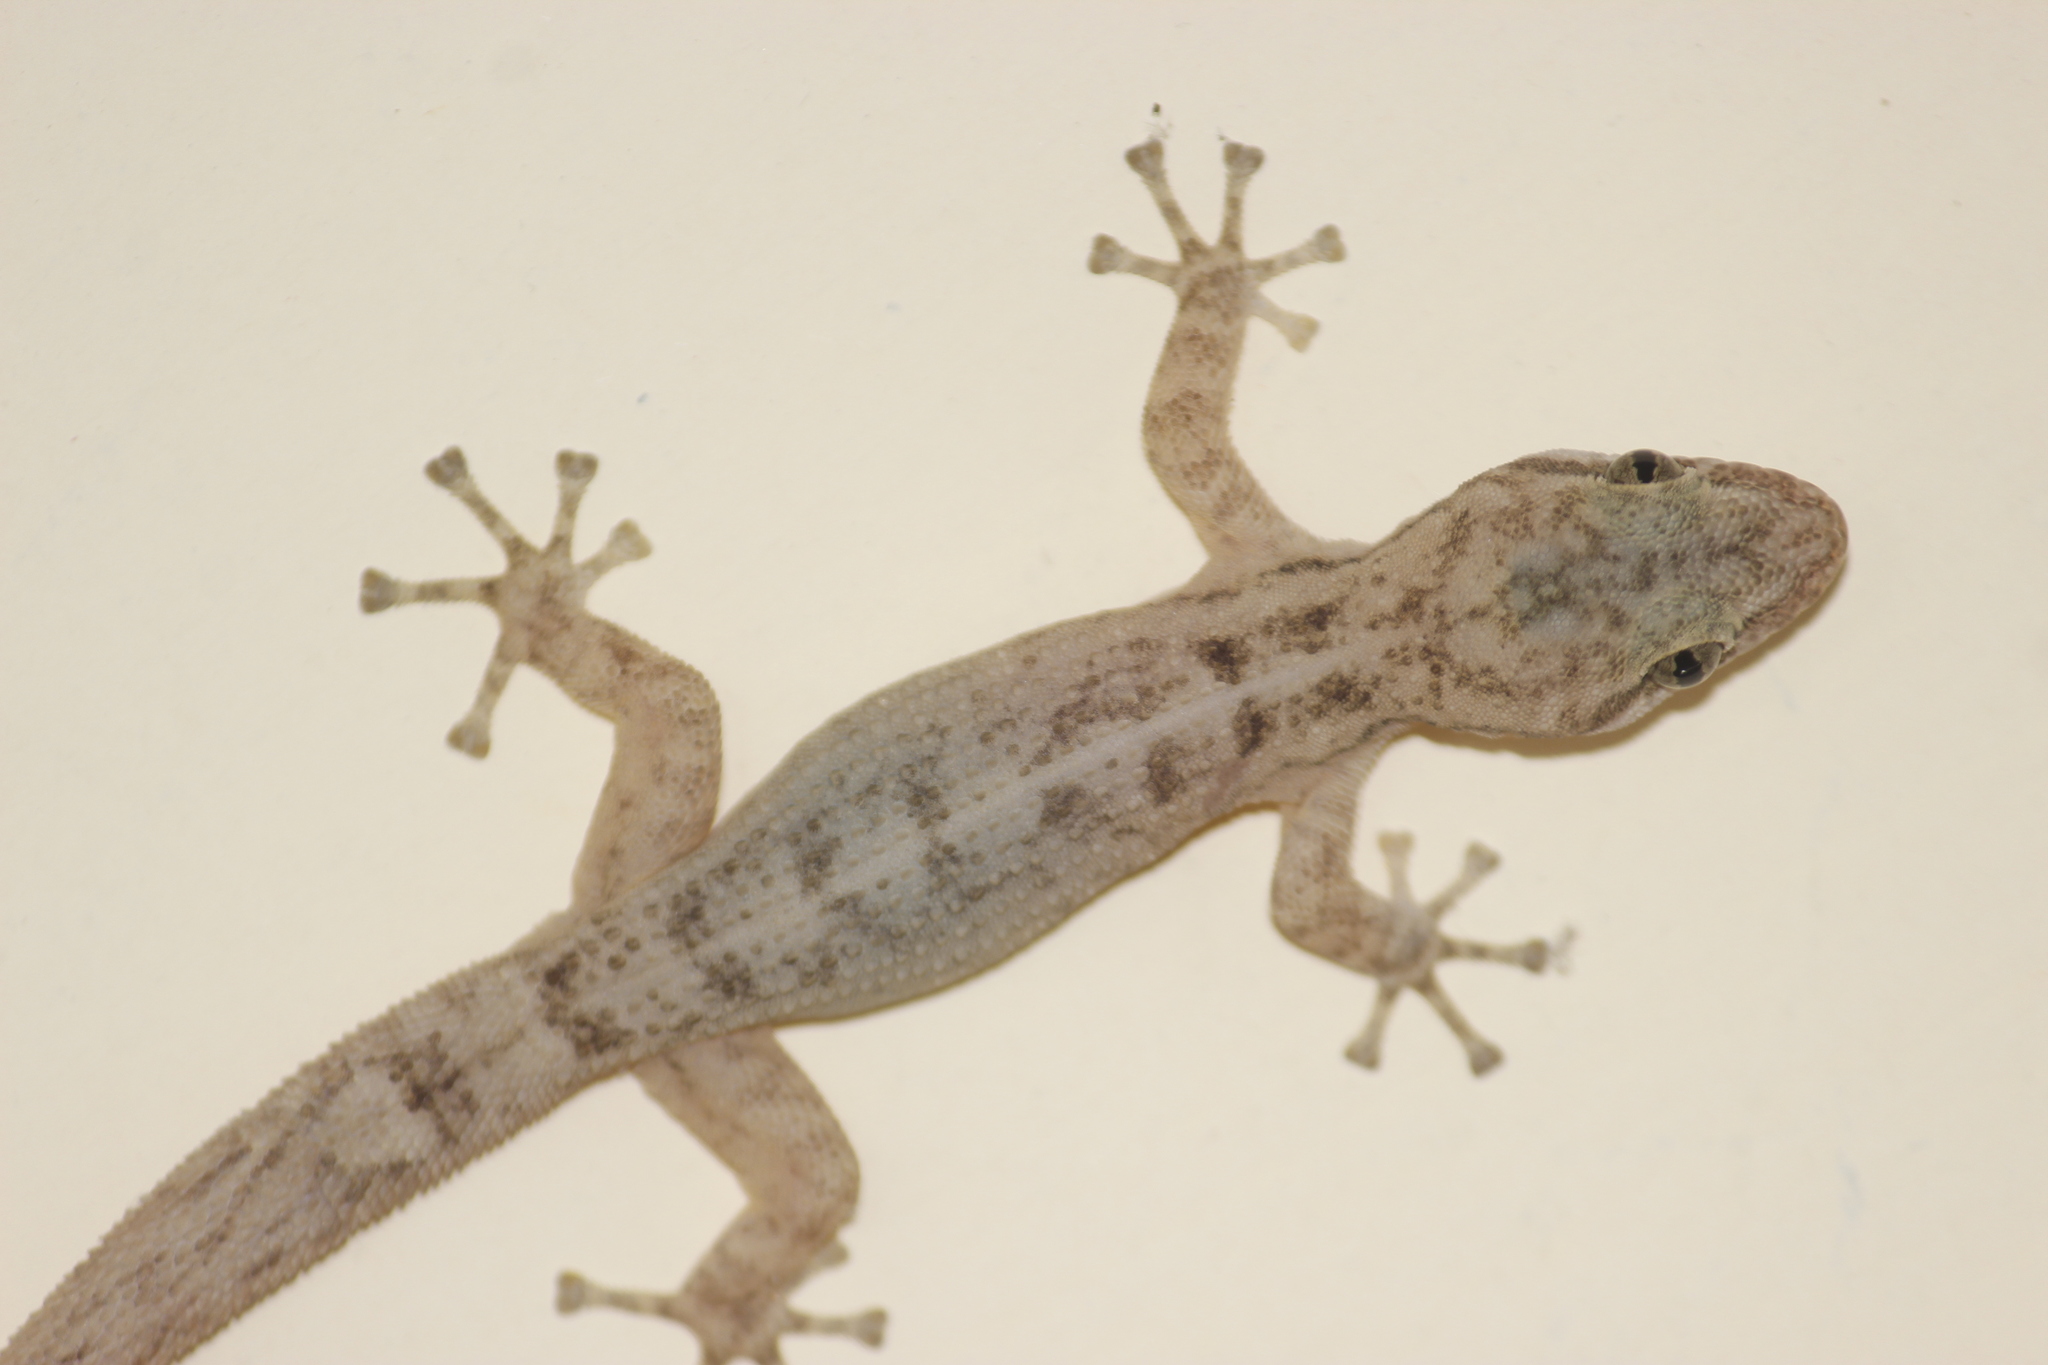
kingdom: Animalia
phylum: Chordata
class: Squamata
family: Phyllodactylidae
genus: Phyllodactylus
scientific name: Phyllodactylus reissii
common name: Peters' leaf-toed gecko
